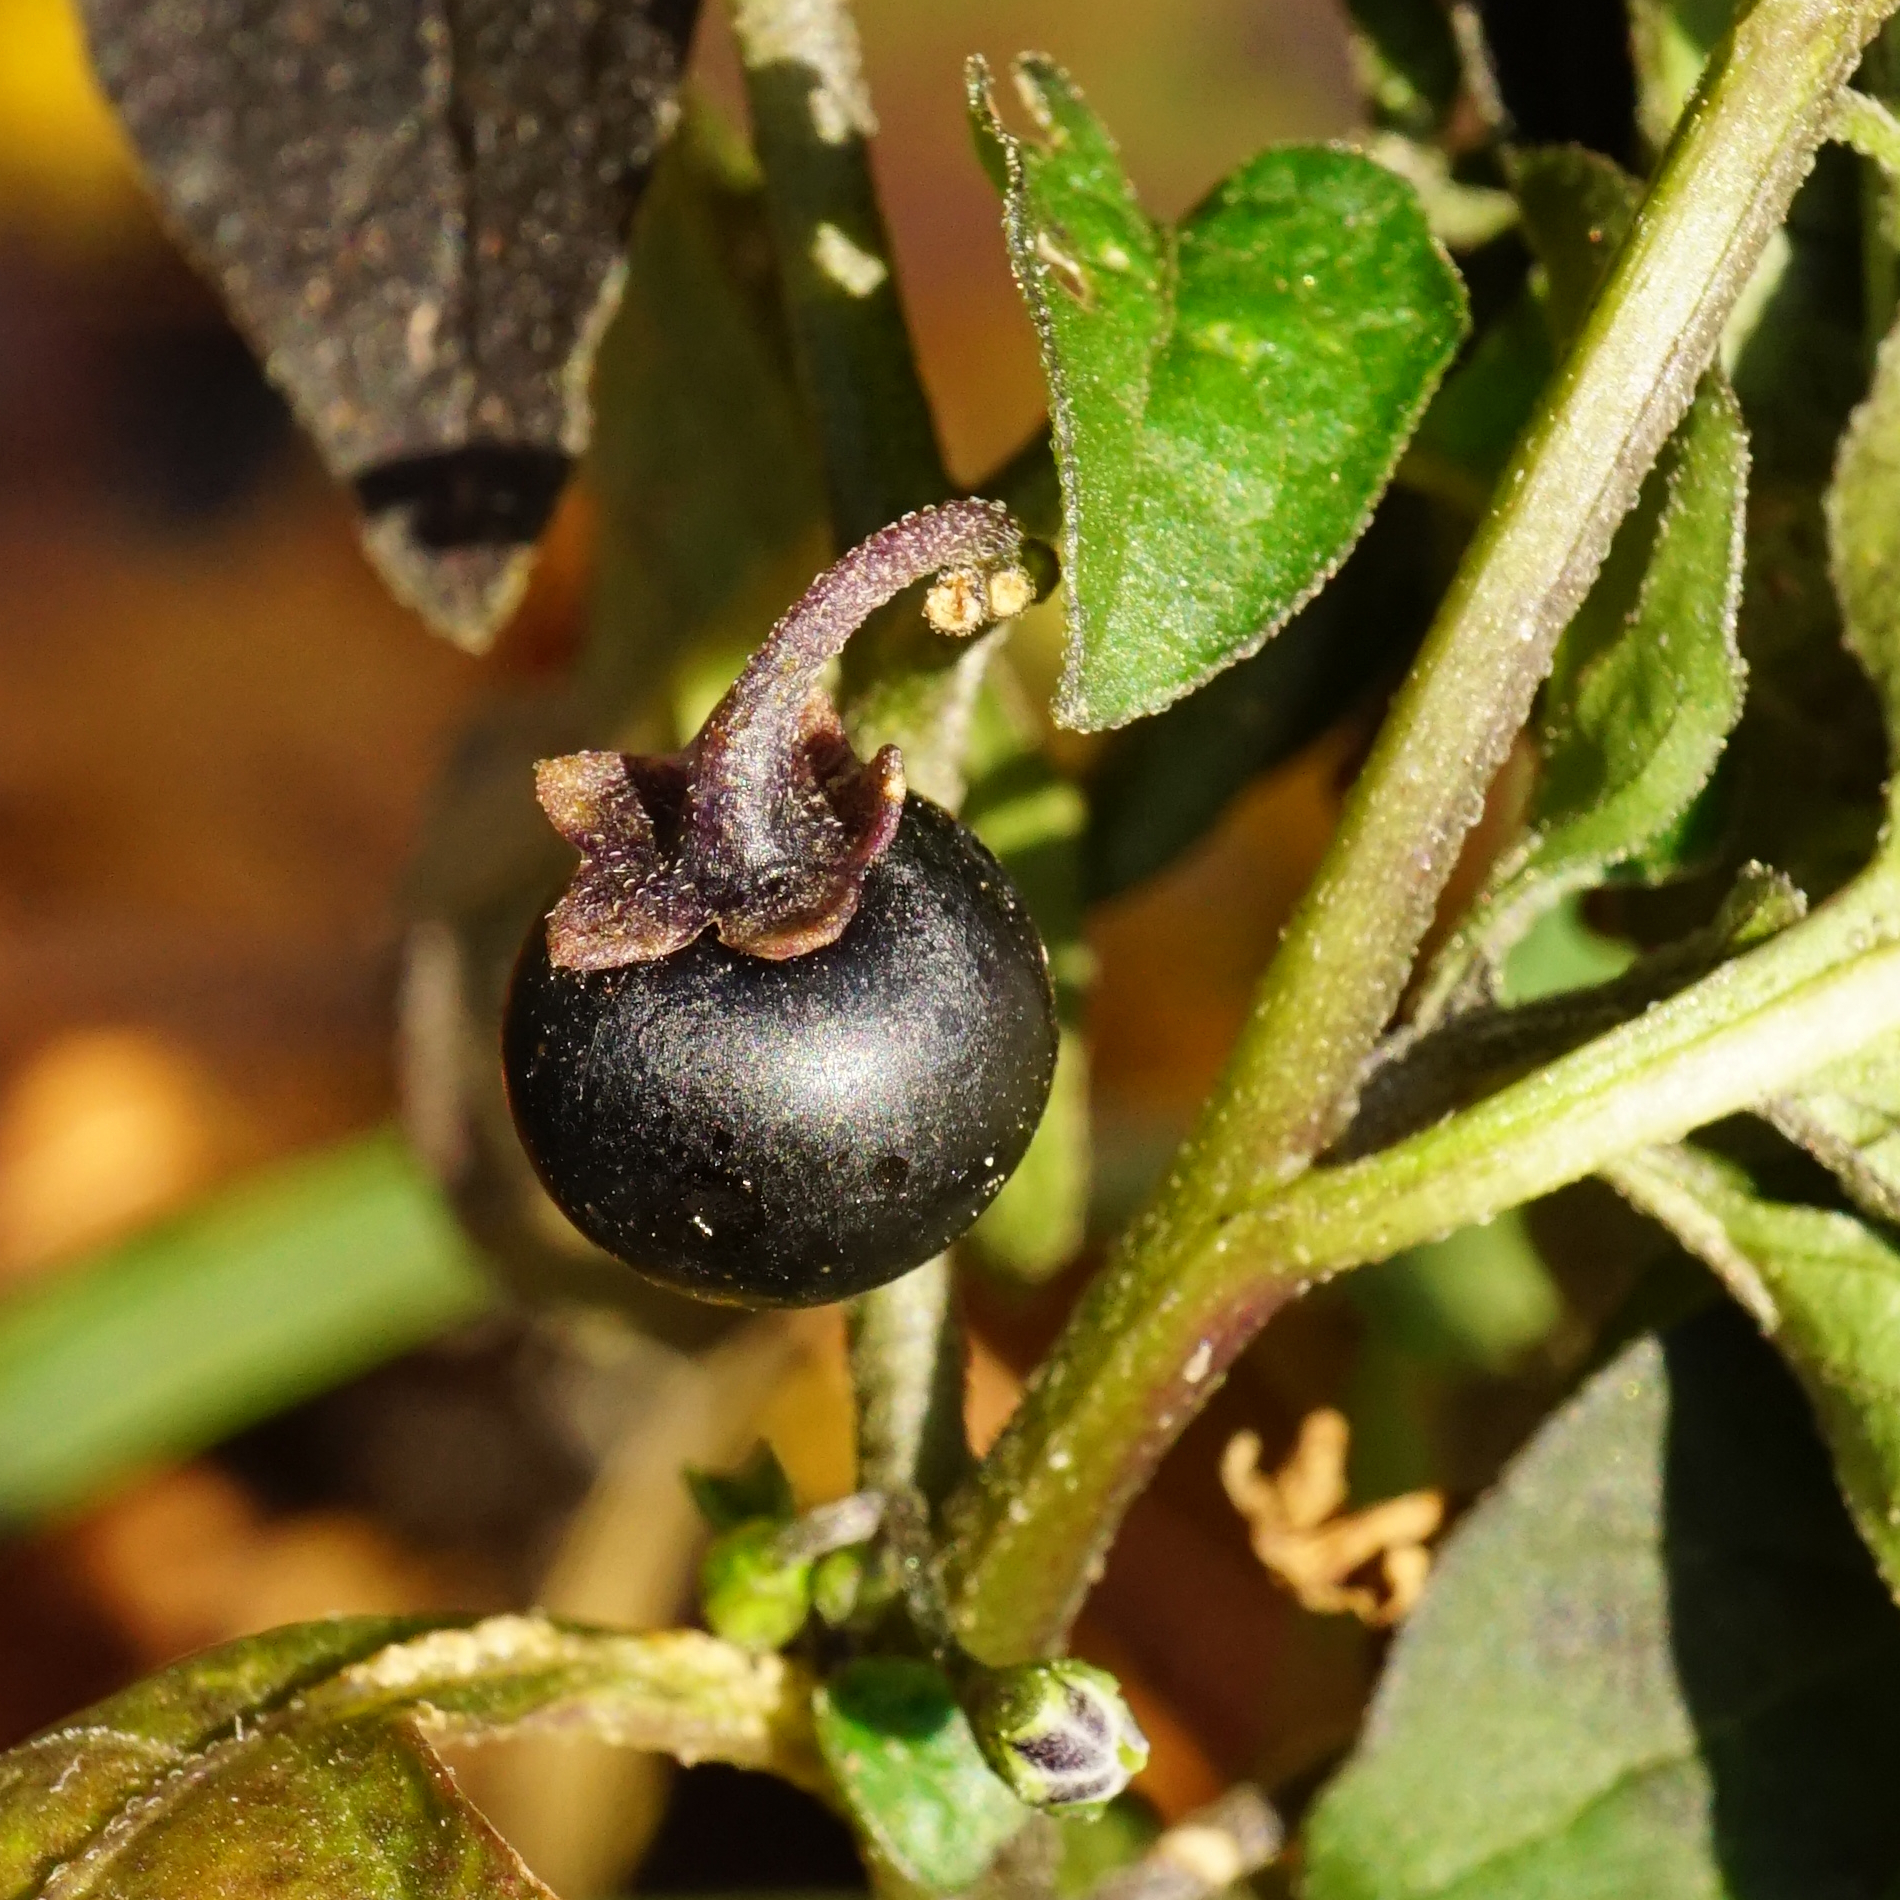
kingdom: Plantae
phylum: Tracheophyta
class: Magnoliopsida
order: Solanales
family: Solanaceae
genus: Solanum
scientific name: Solanum nigrum
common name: Black nightshade
